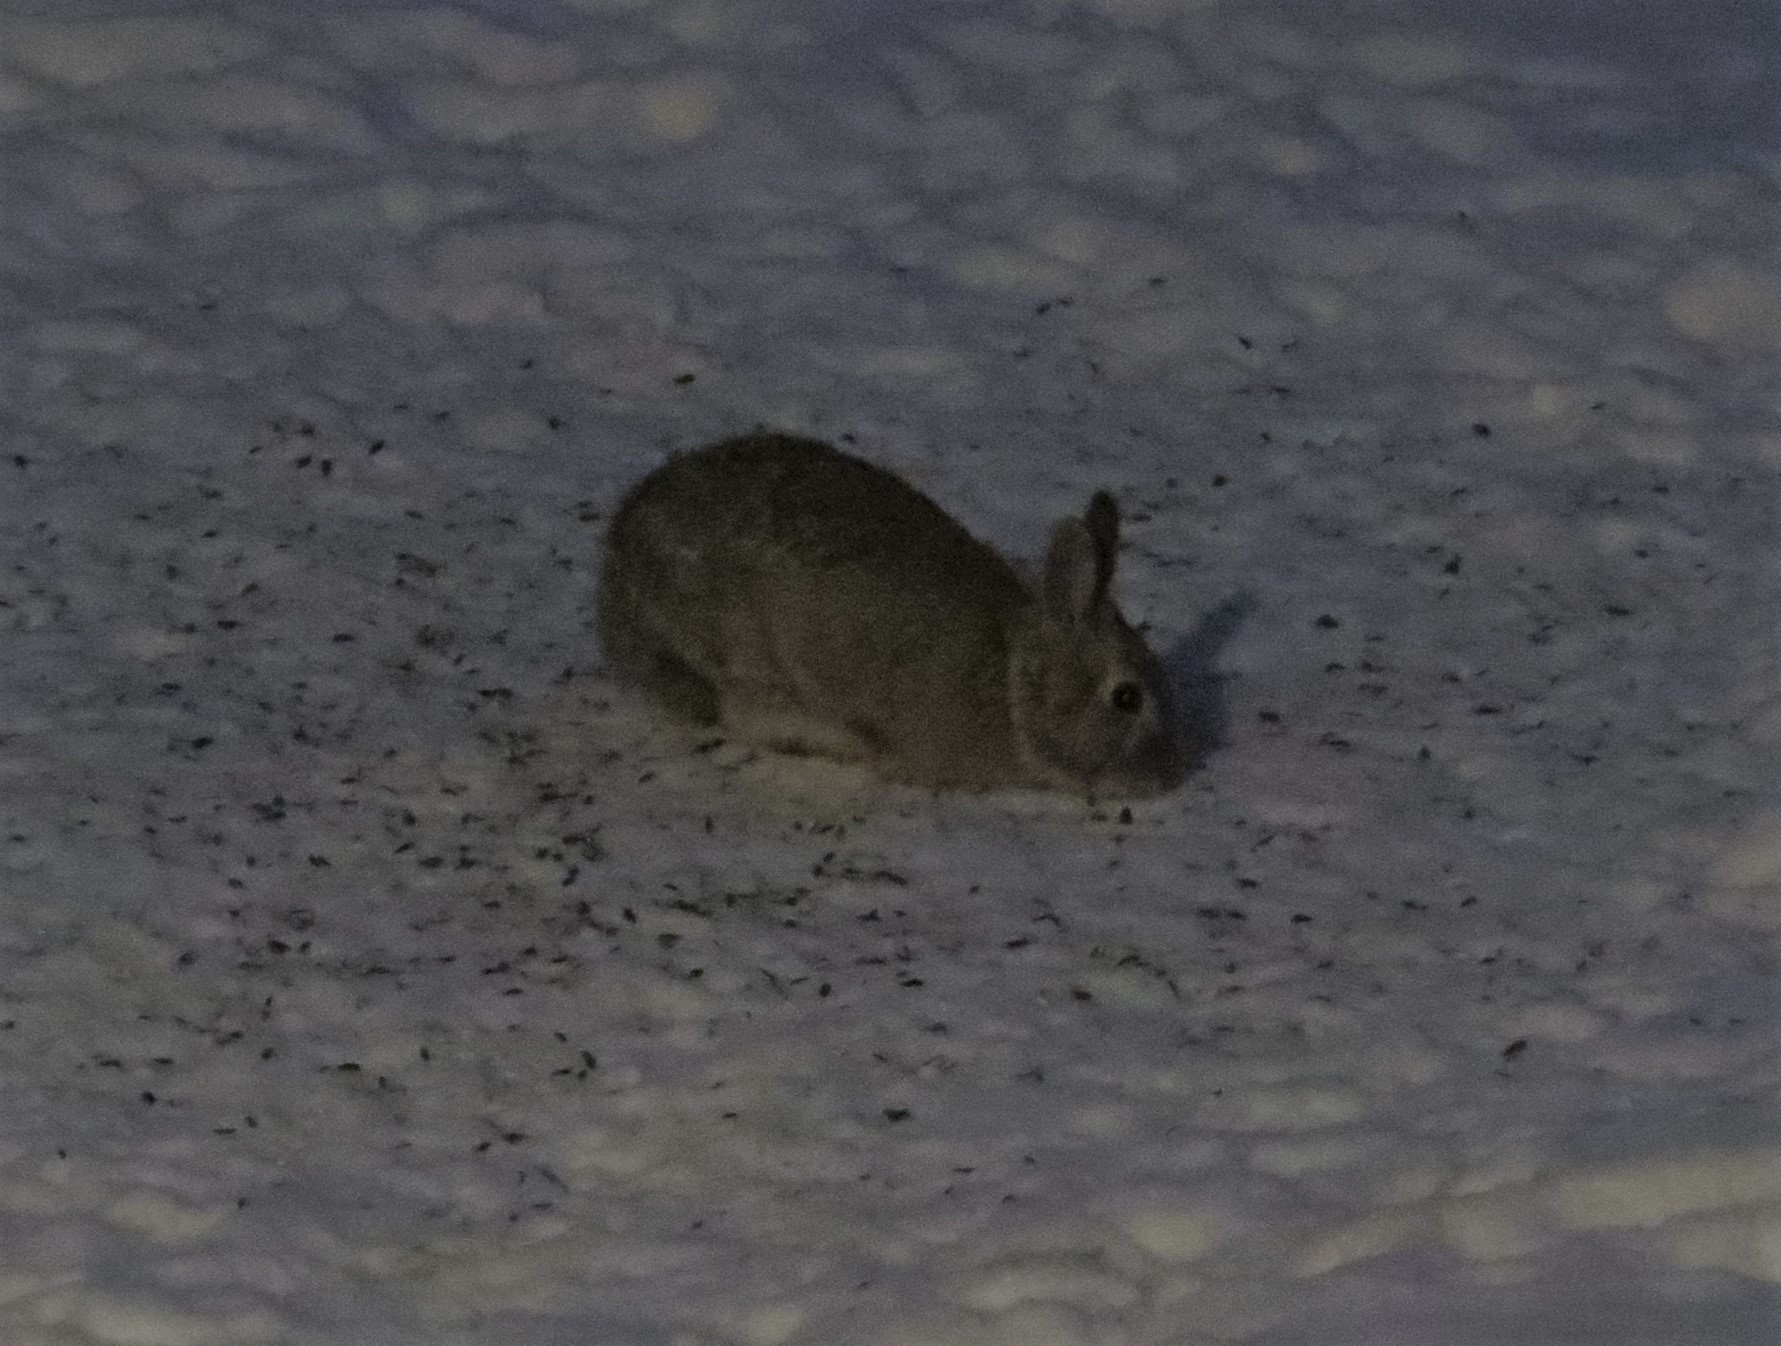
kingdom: Animalia
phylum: Chordata
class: Mammalia
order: Lagomorpha
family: Leporidae
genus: Sylvilagus
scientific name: Sylvilagus floridanus
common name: Eastern cottontail
